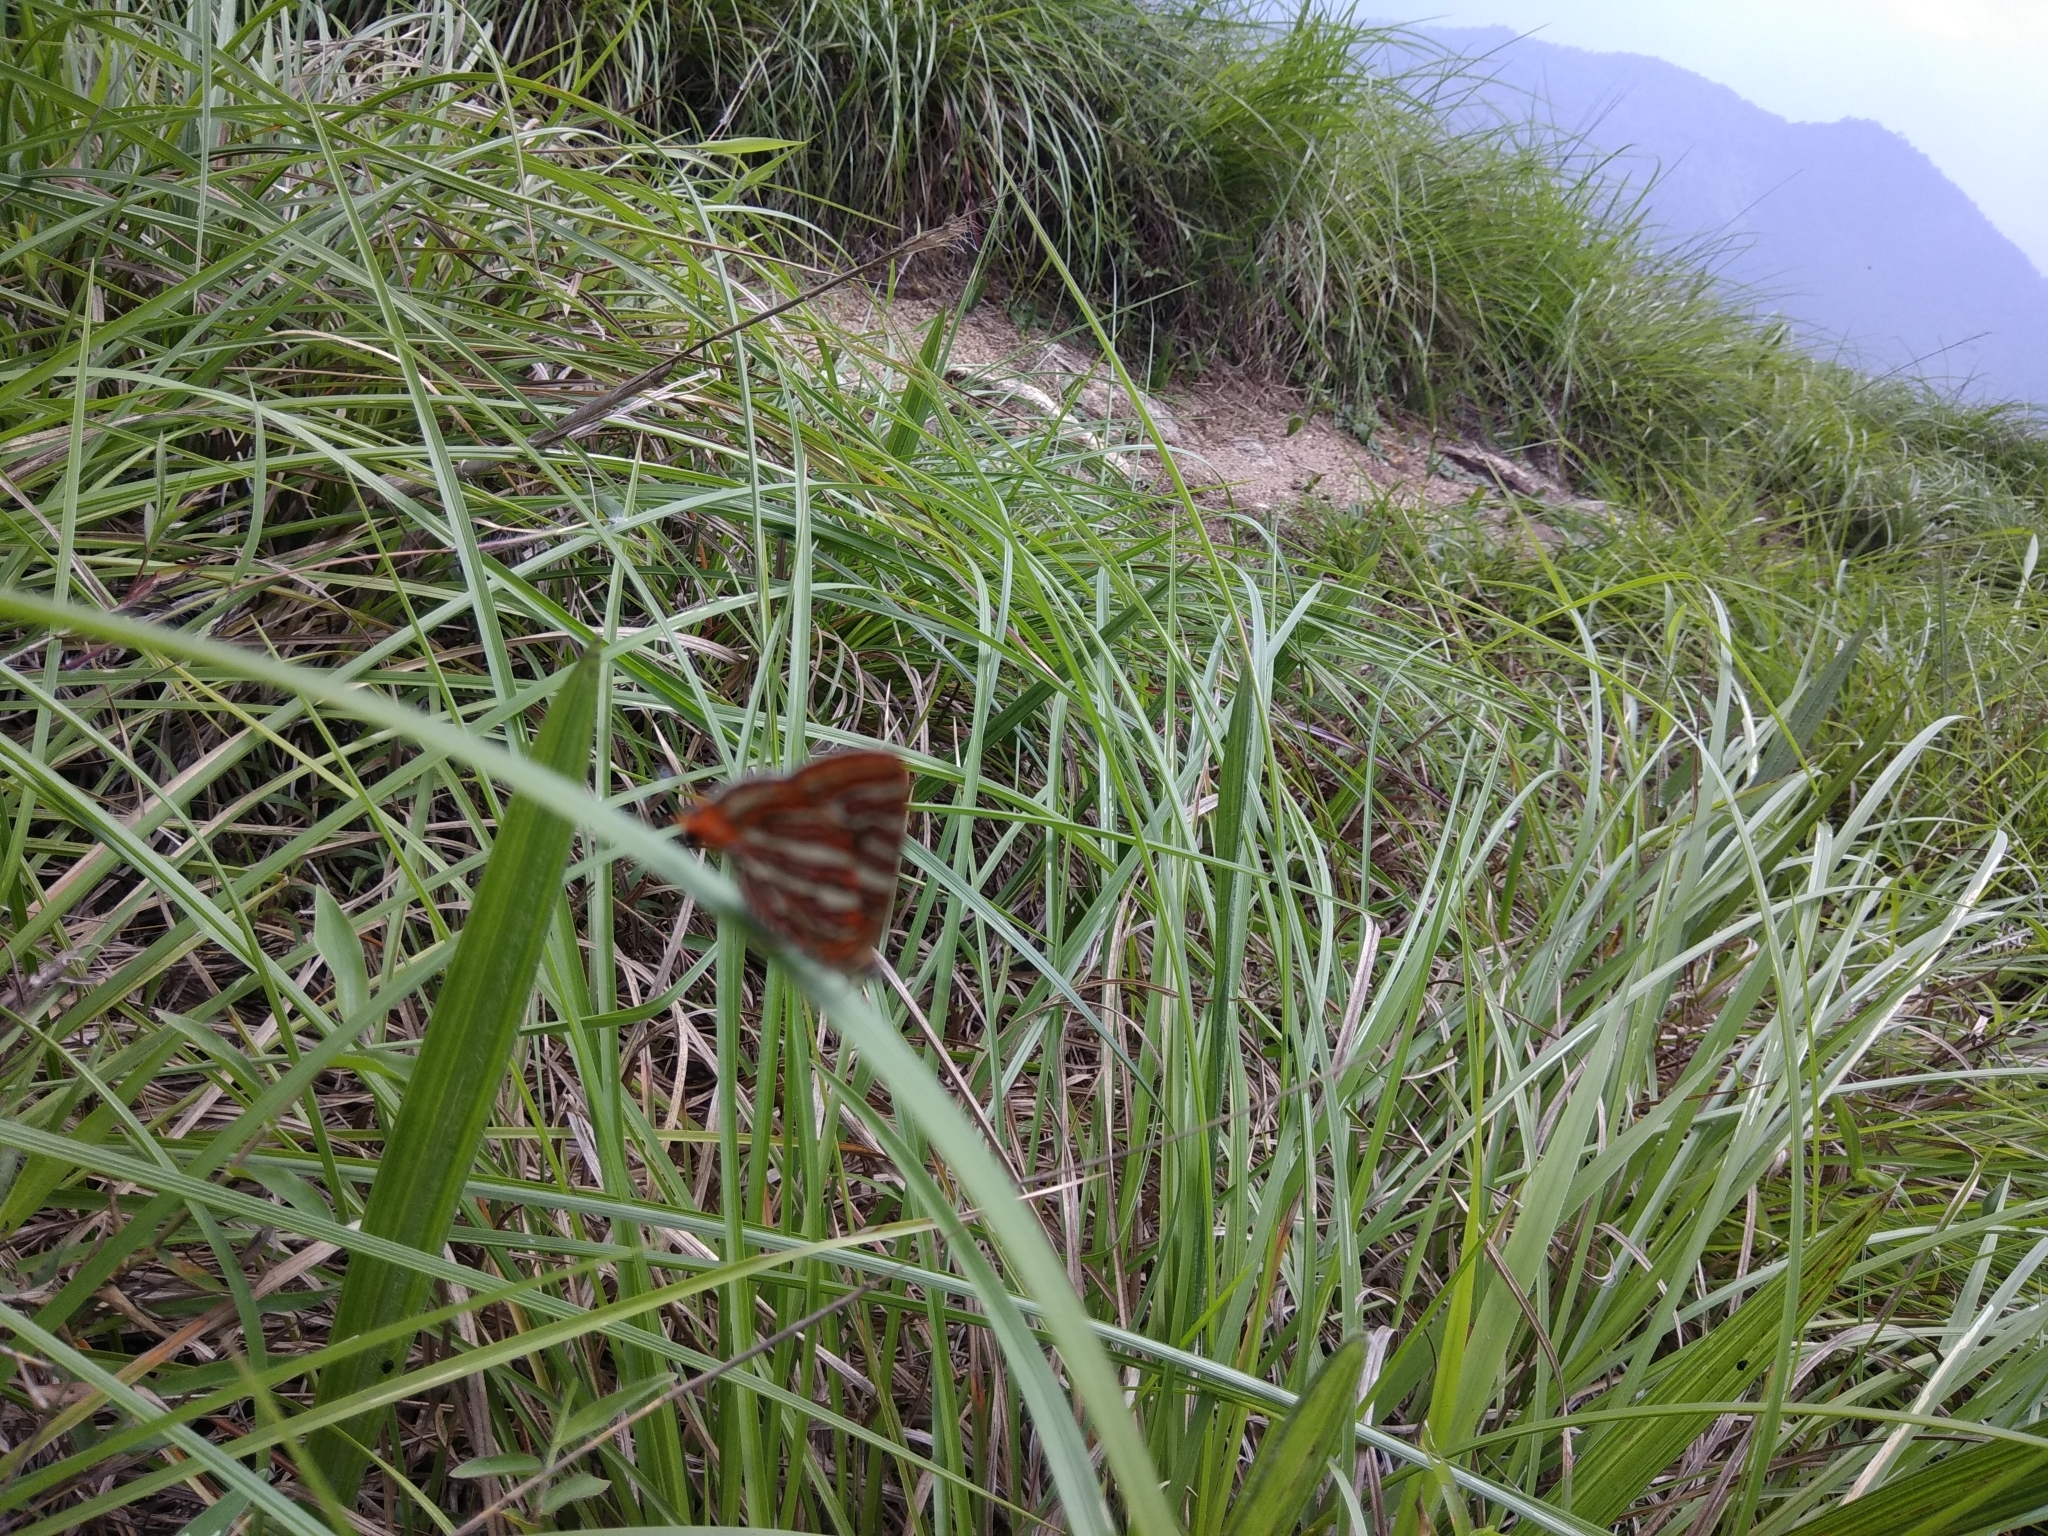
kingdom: Animalia
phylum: Arthropoda
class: Insecta
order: Lepidoptera
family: Lycaenidae
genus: Cigaritis
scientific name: Cigaritis vulcanus
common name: Common silverline
